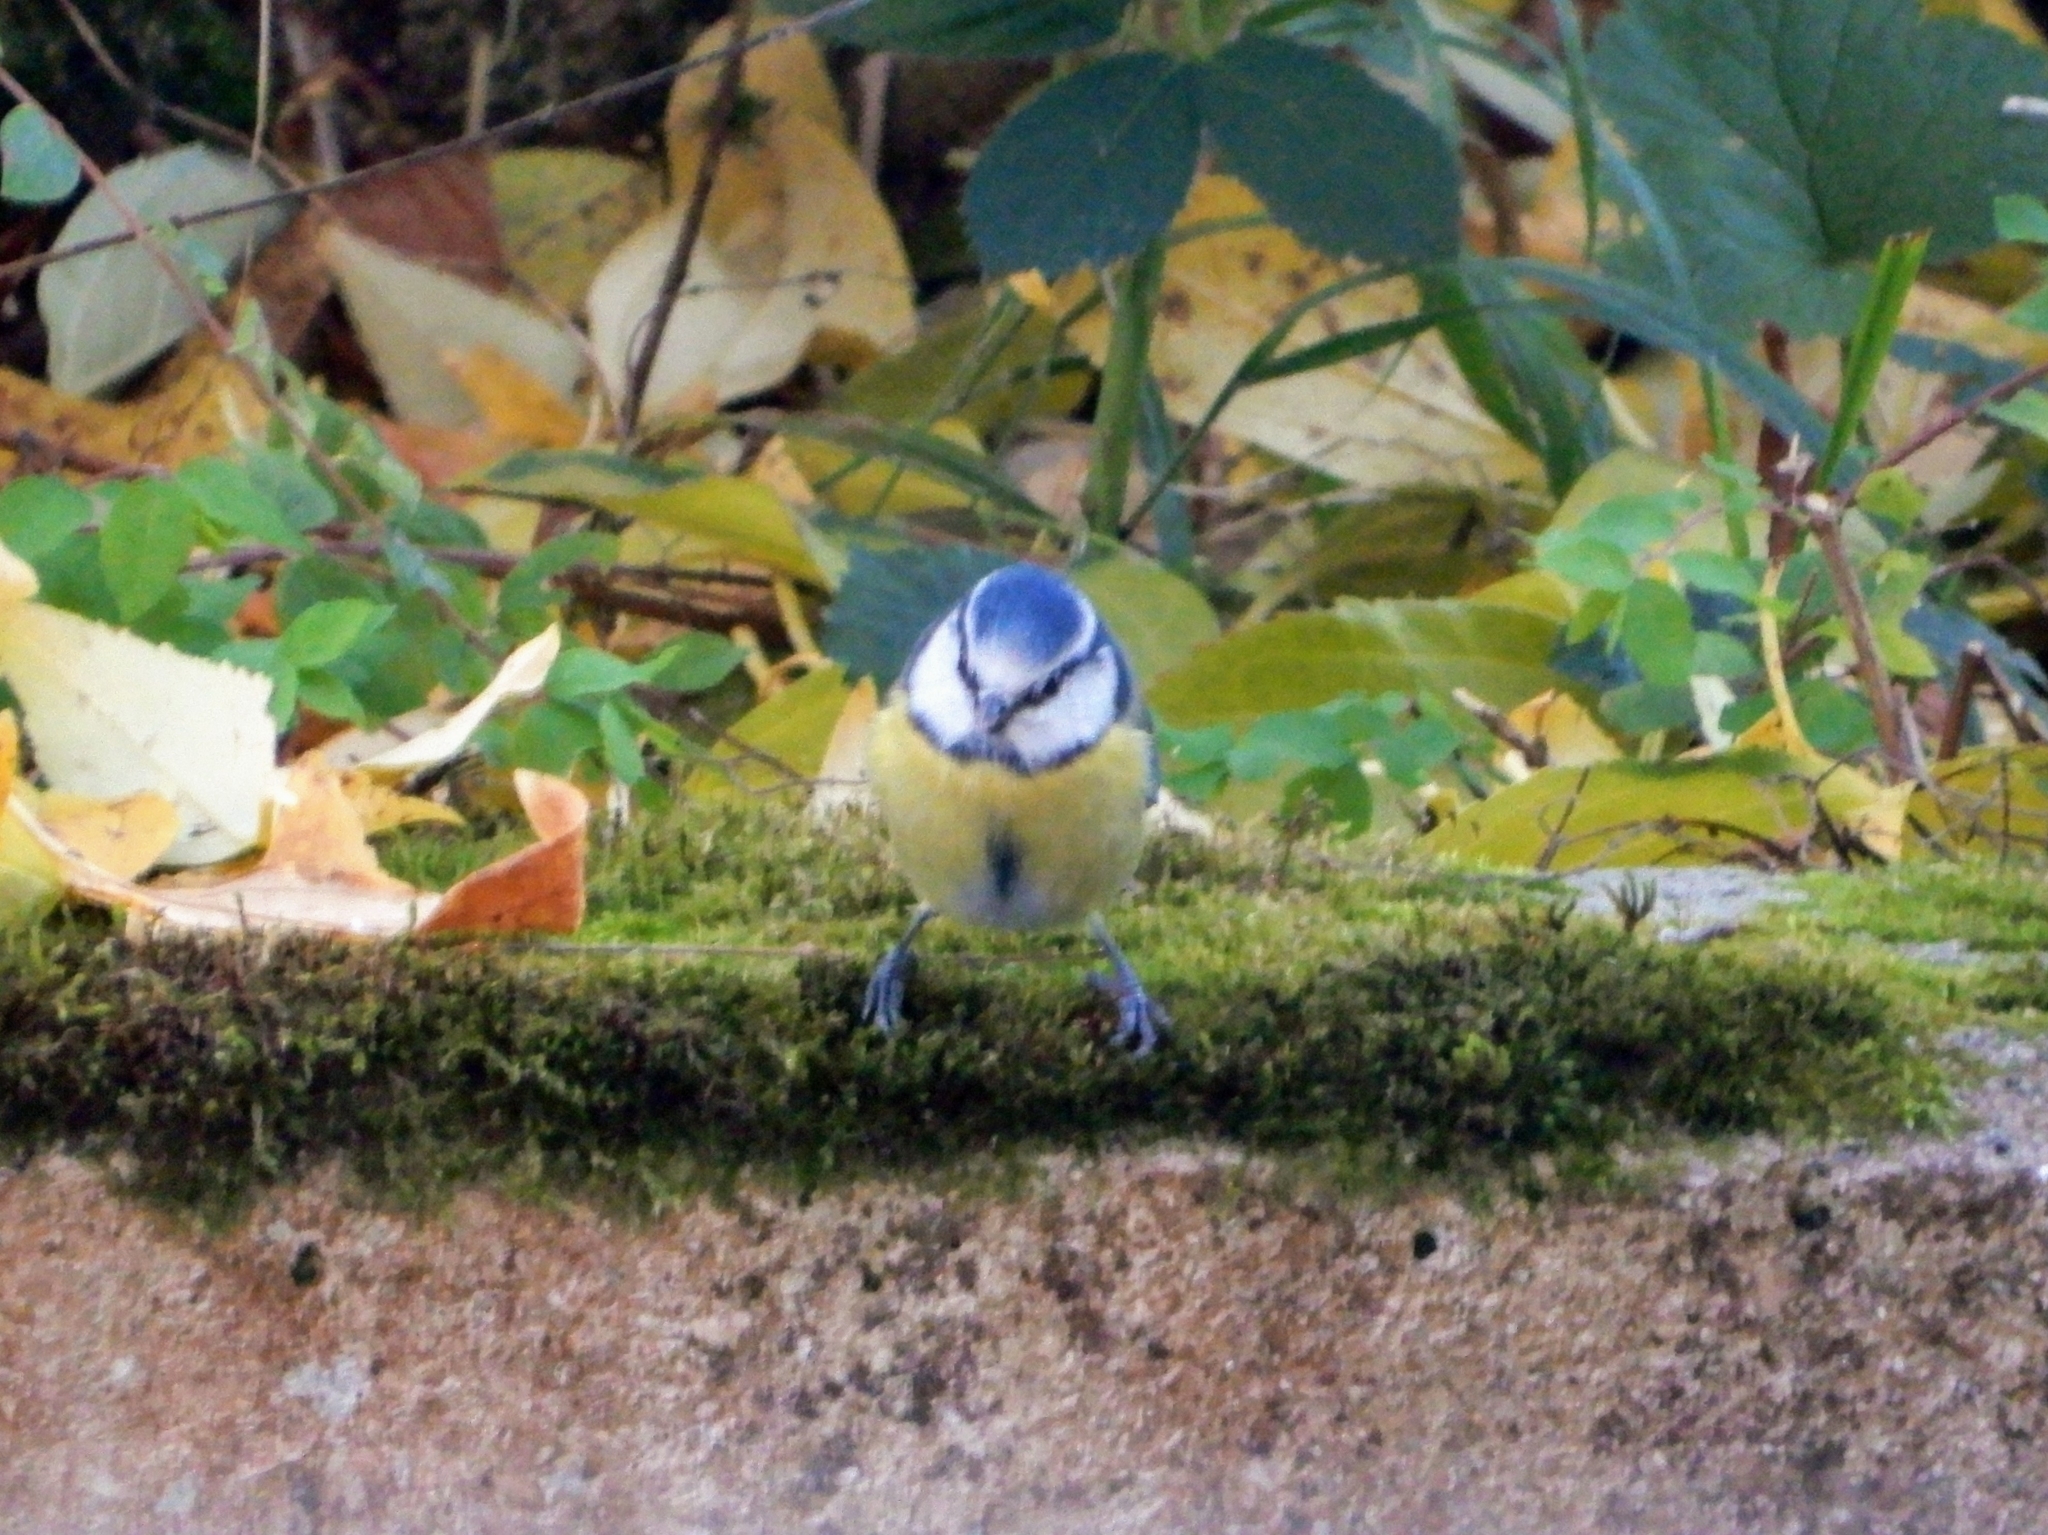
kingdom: Animalia
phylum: Chordata
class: Aves
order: Passeriformes
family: Paridae
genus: Cyanistes
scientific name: Cyanistes caeruleus
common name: Eurasian blue tit
